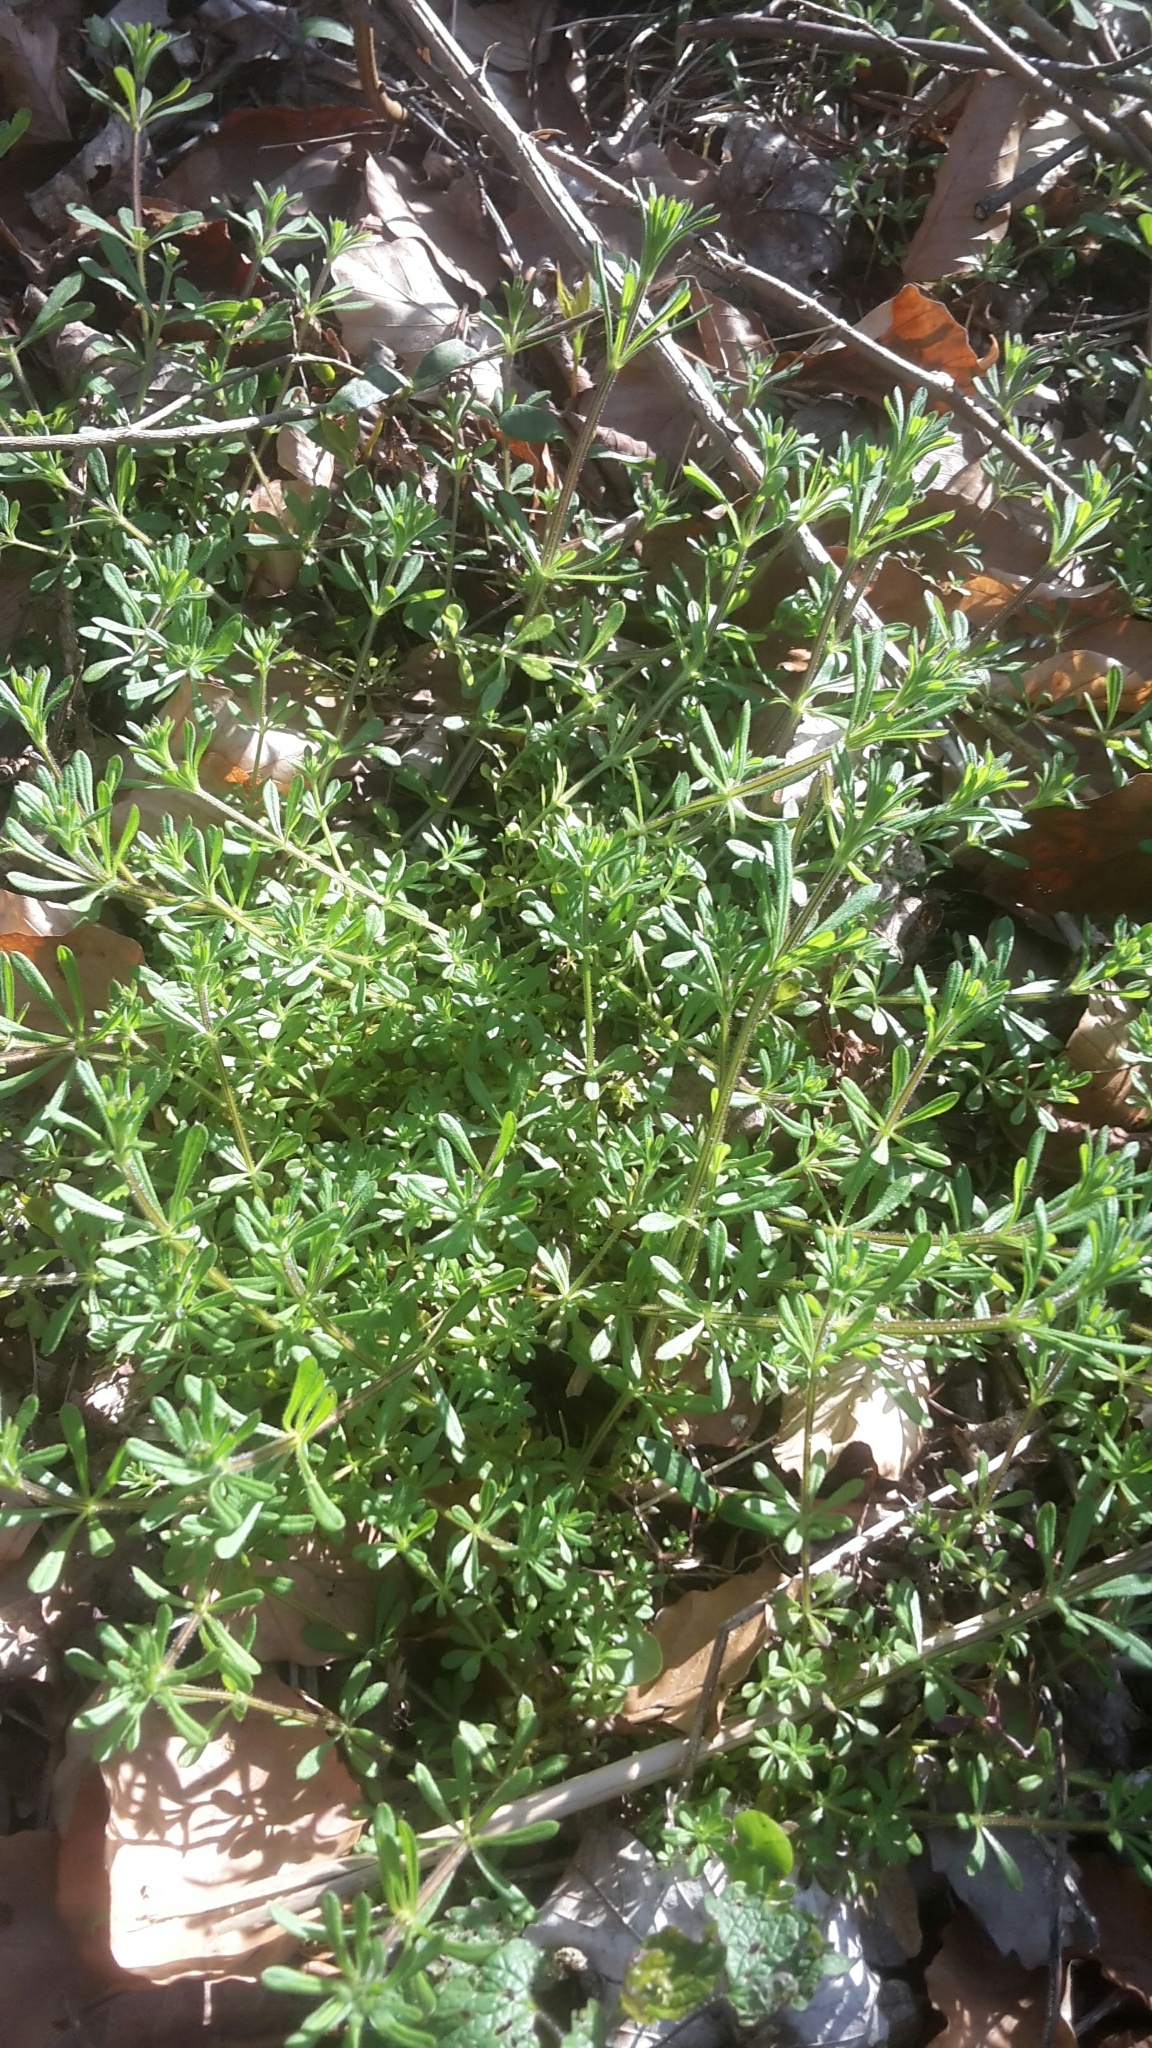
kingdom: Plantae
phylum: Tracheophyta
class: Magnoliopsida
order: Gentianales
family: Rubiaceae
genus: Galium
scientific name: Galium aparine
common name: Cleavers
